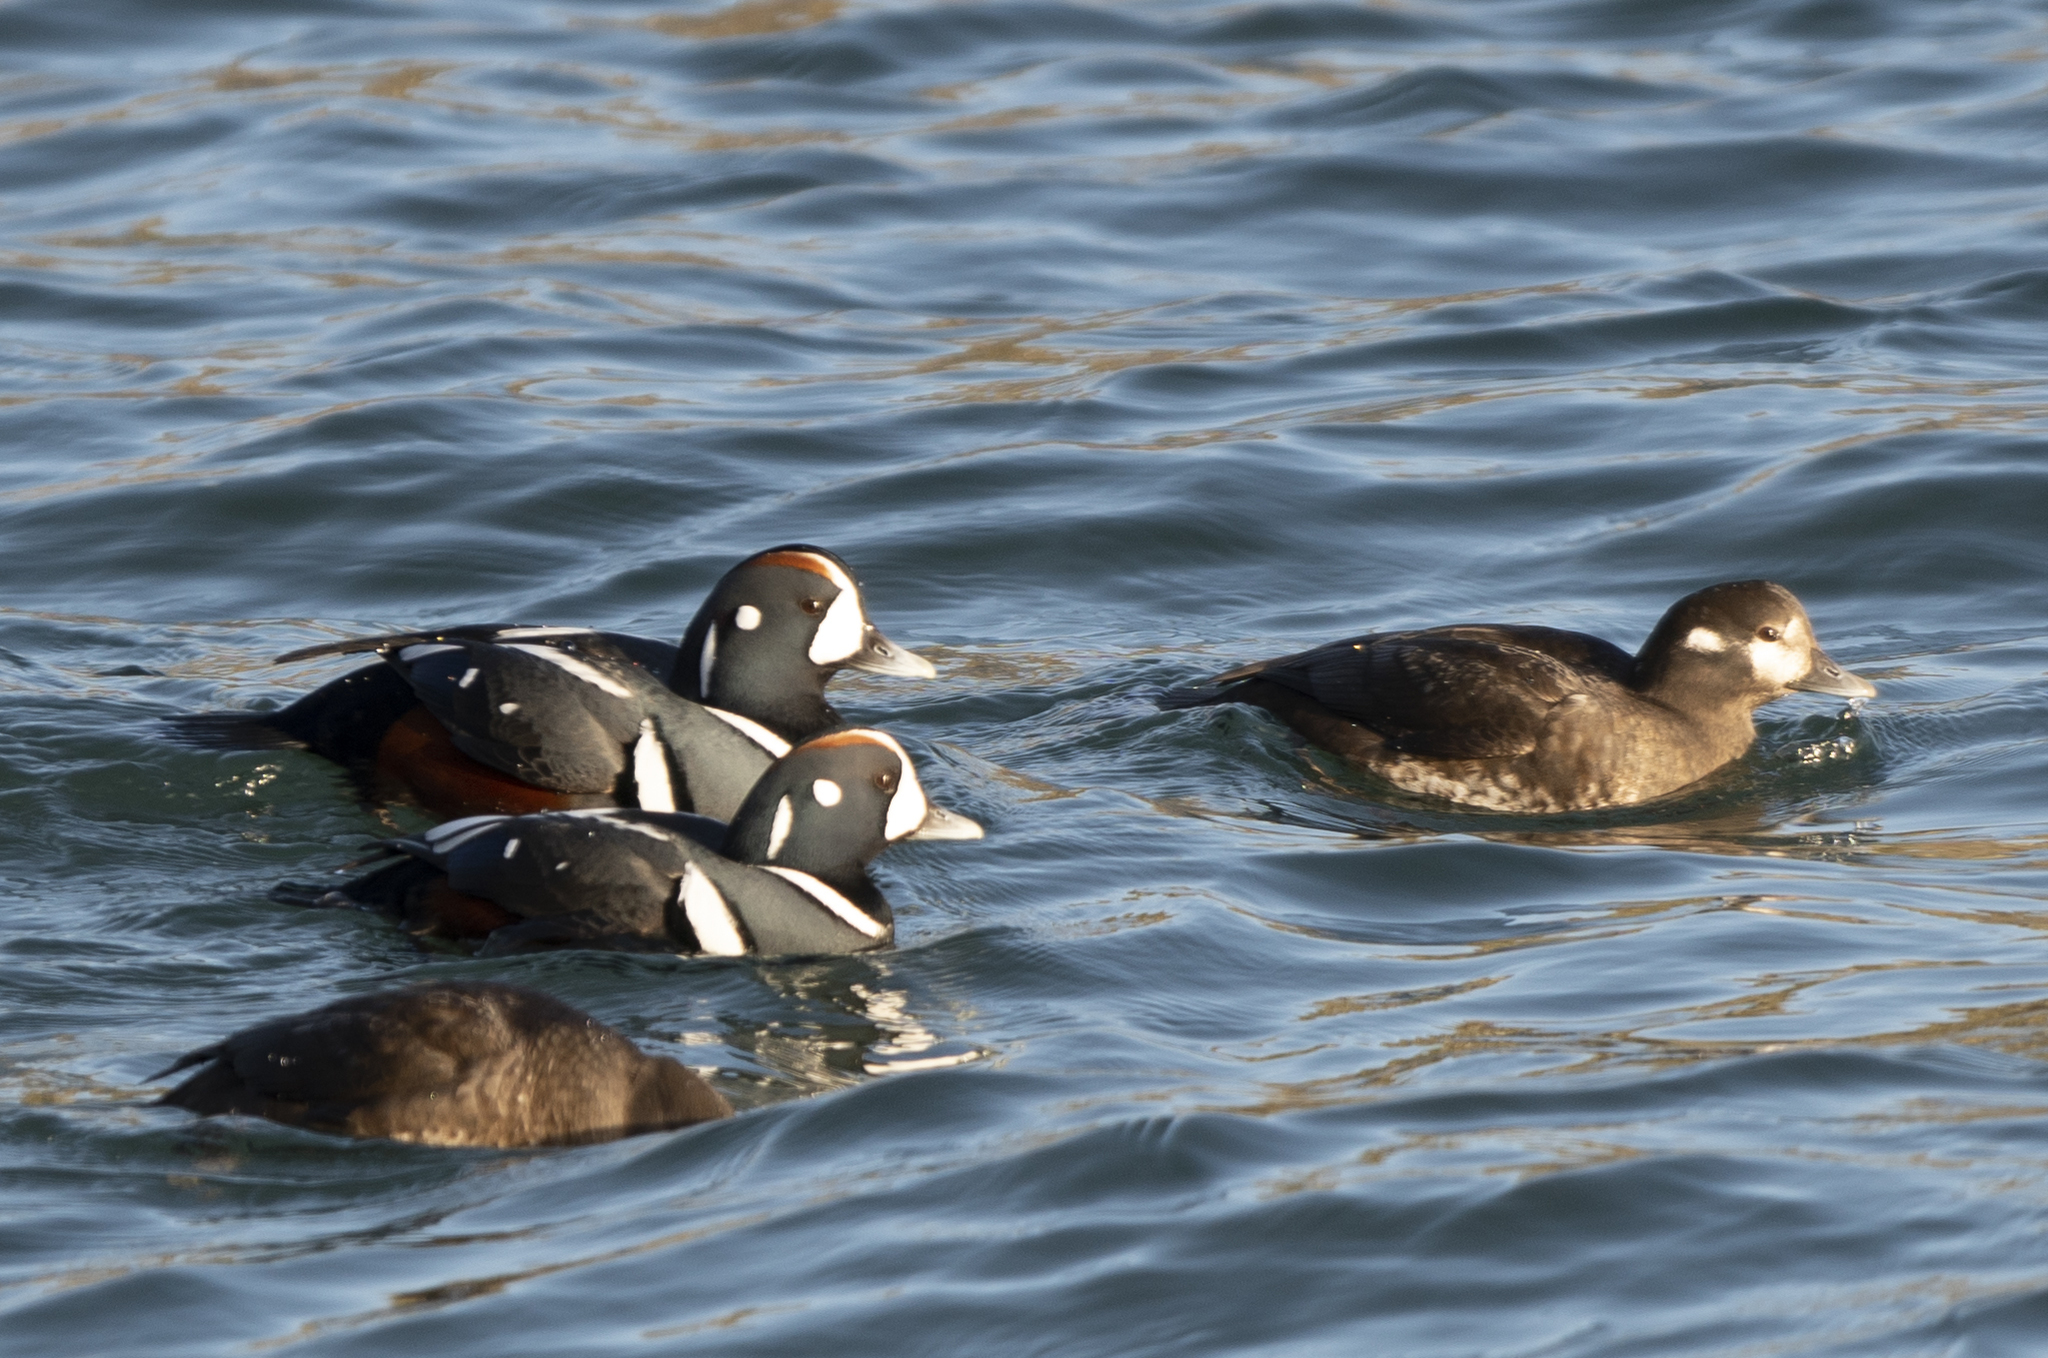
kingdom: Animalia
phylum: Chordata
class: Aves
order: Anseriformes
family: Anatidae
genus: Histrionicus
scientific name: Histrionicus histrionicus
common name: Harlequin duck
